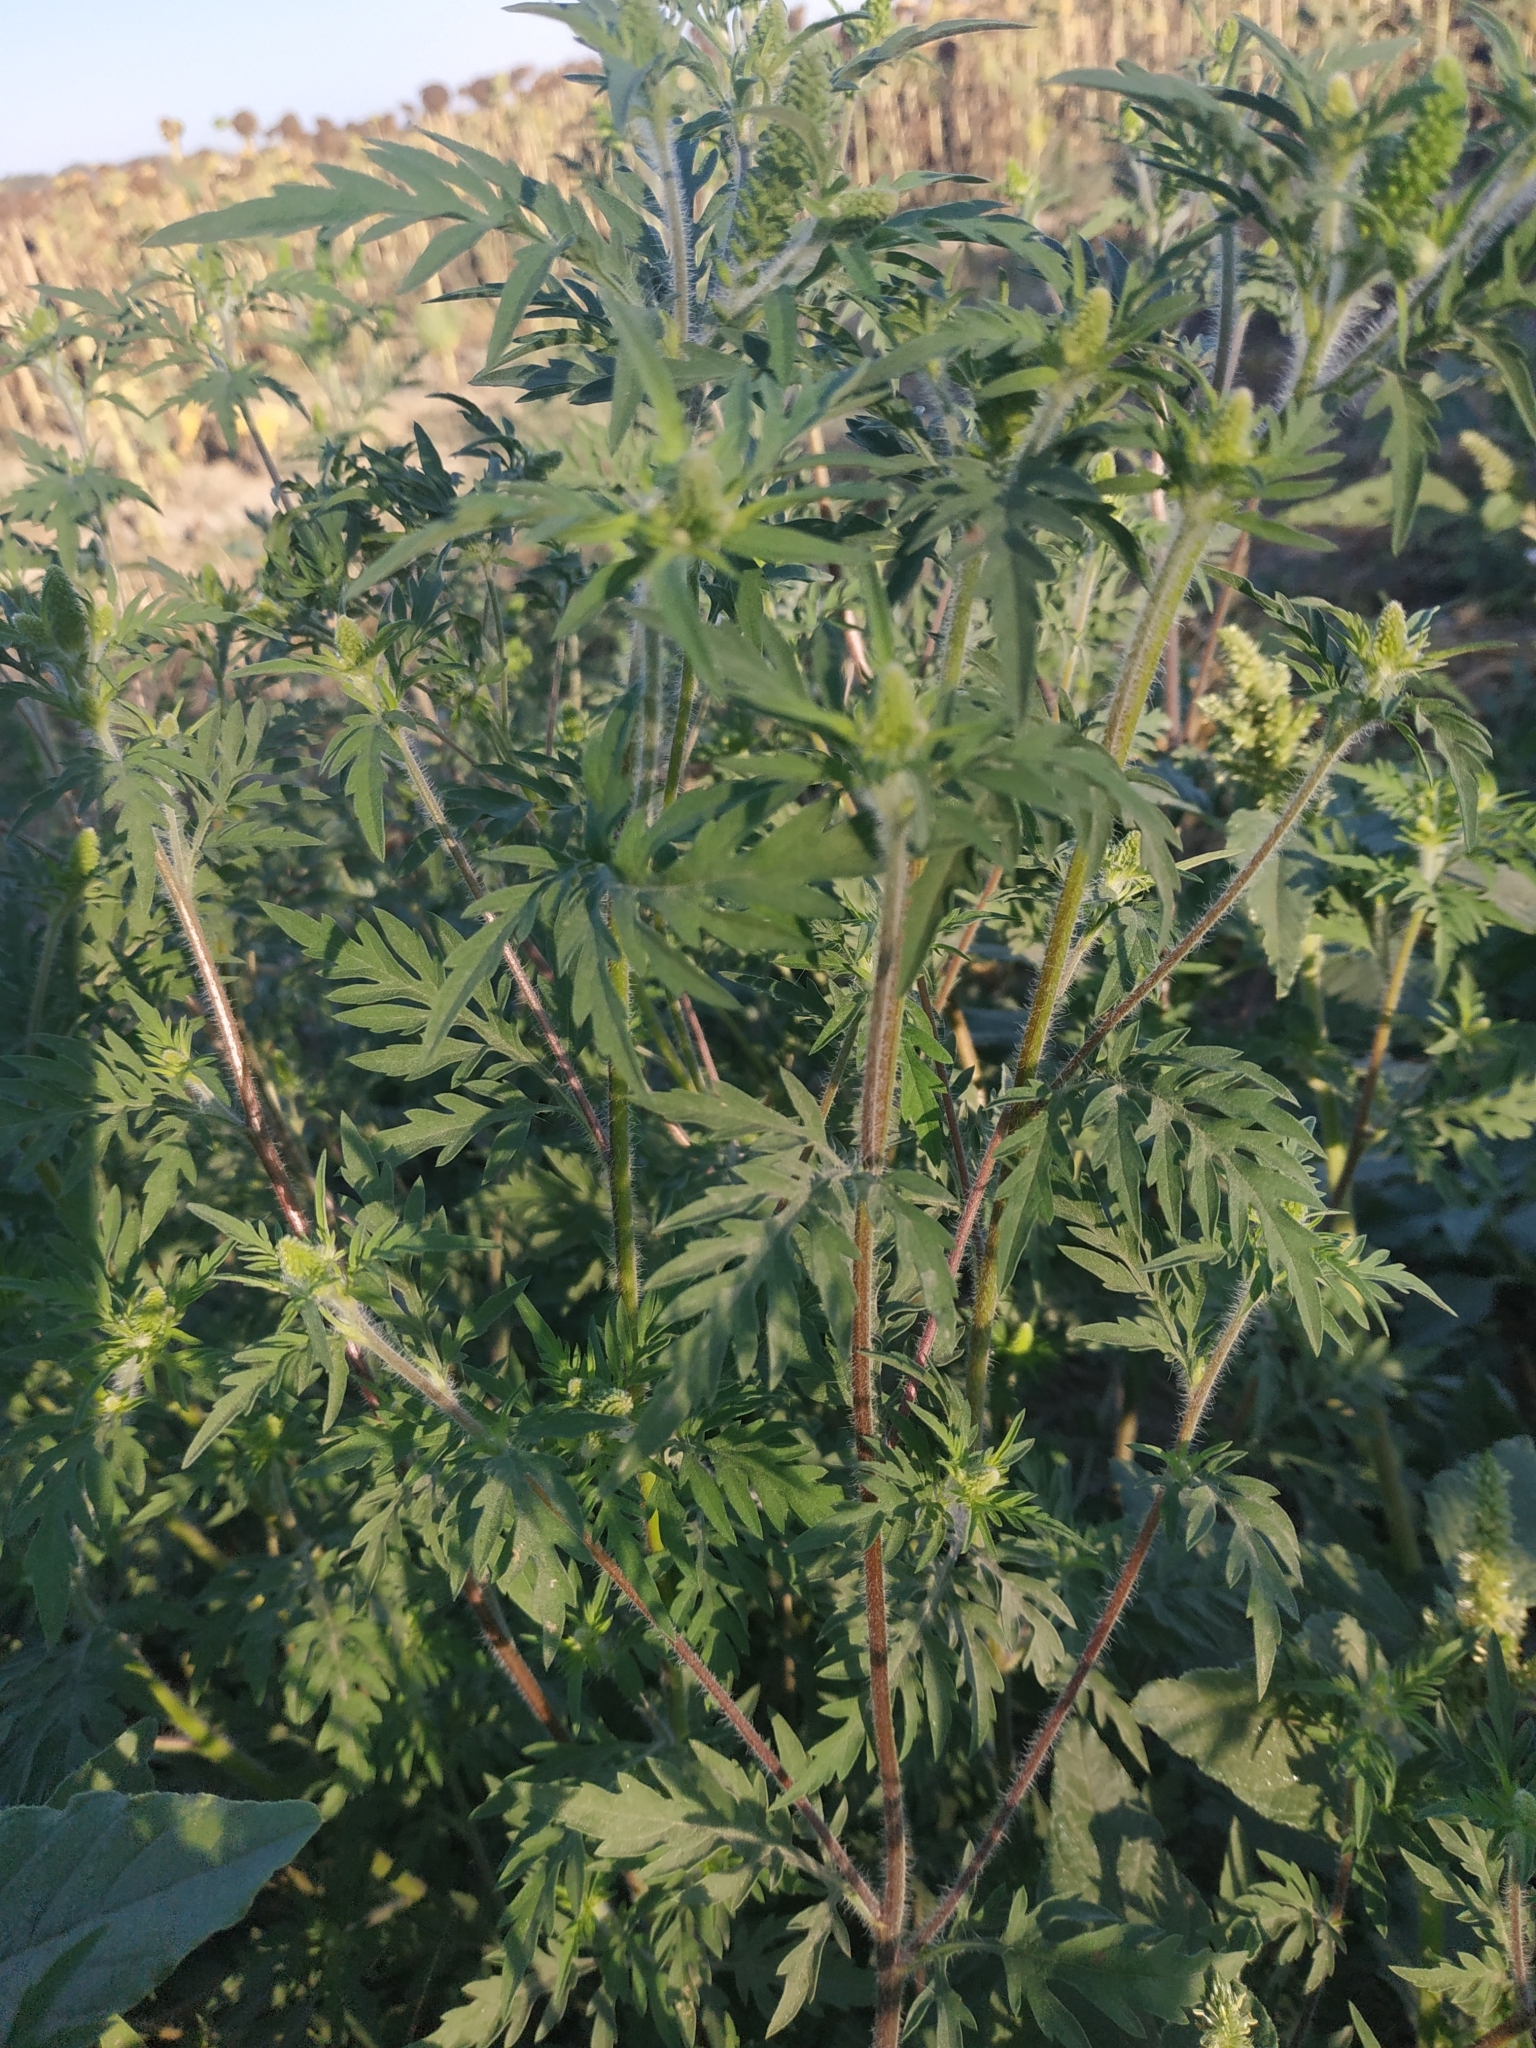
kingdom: Plantae
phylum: Tracheophyta
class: Magnoliopsida
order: Asterales
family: Asteraceae
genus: Ambrosia
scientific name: Ambrosia artemisiifolia
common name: Annual ragweed
